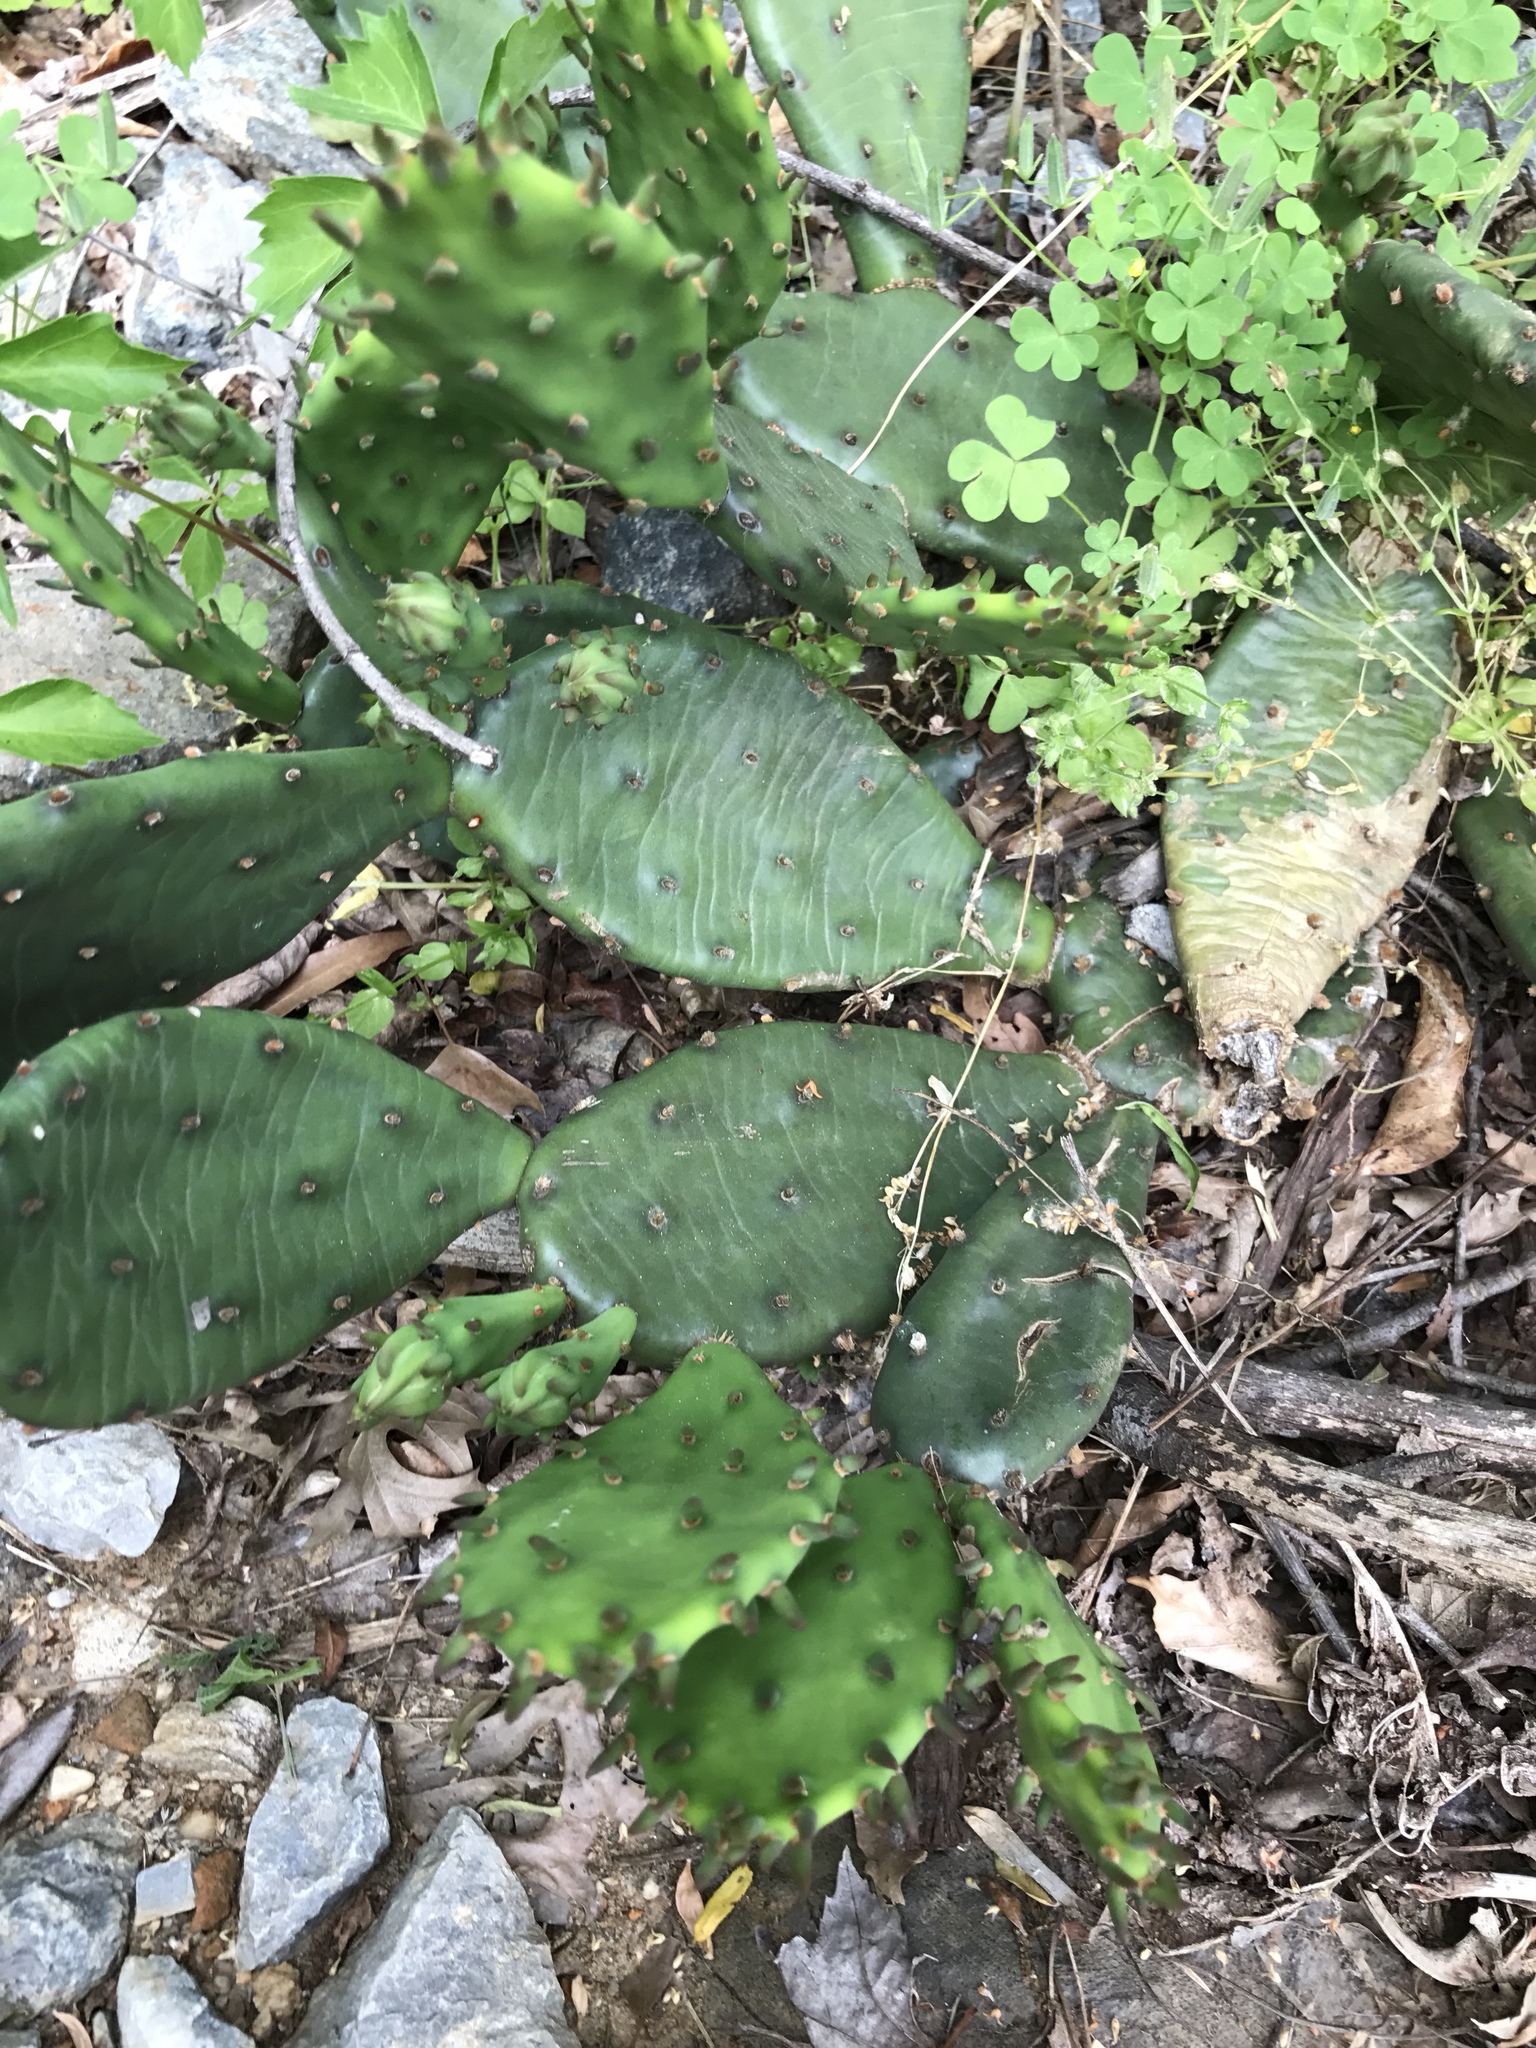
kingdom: Plantae
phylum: Tracheophyta
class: Magnoliopsida
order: Caryophyllales
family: Cactaceae
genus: Opuntia
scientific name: Opuntia humifusa
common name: Eastern prickly-pear
